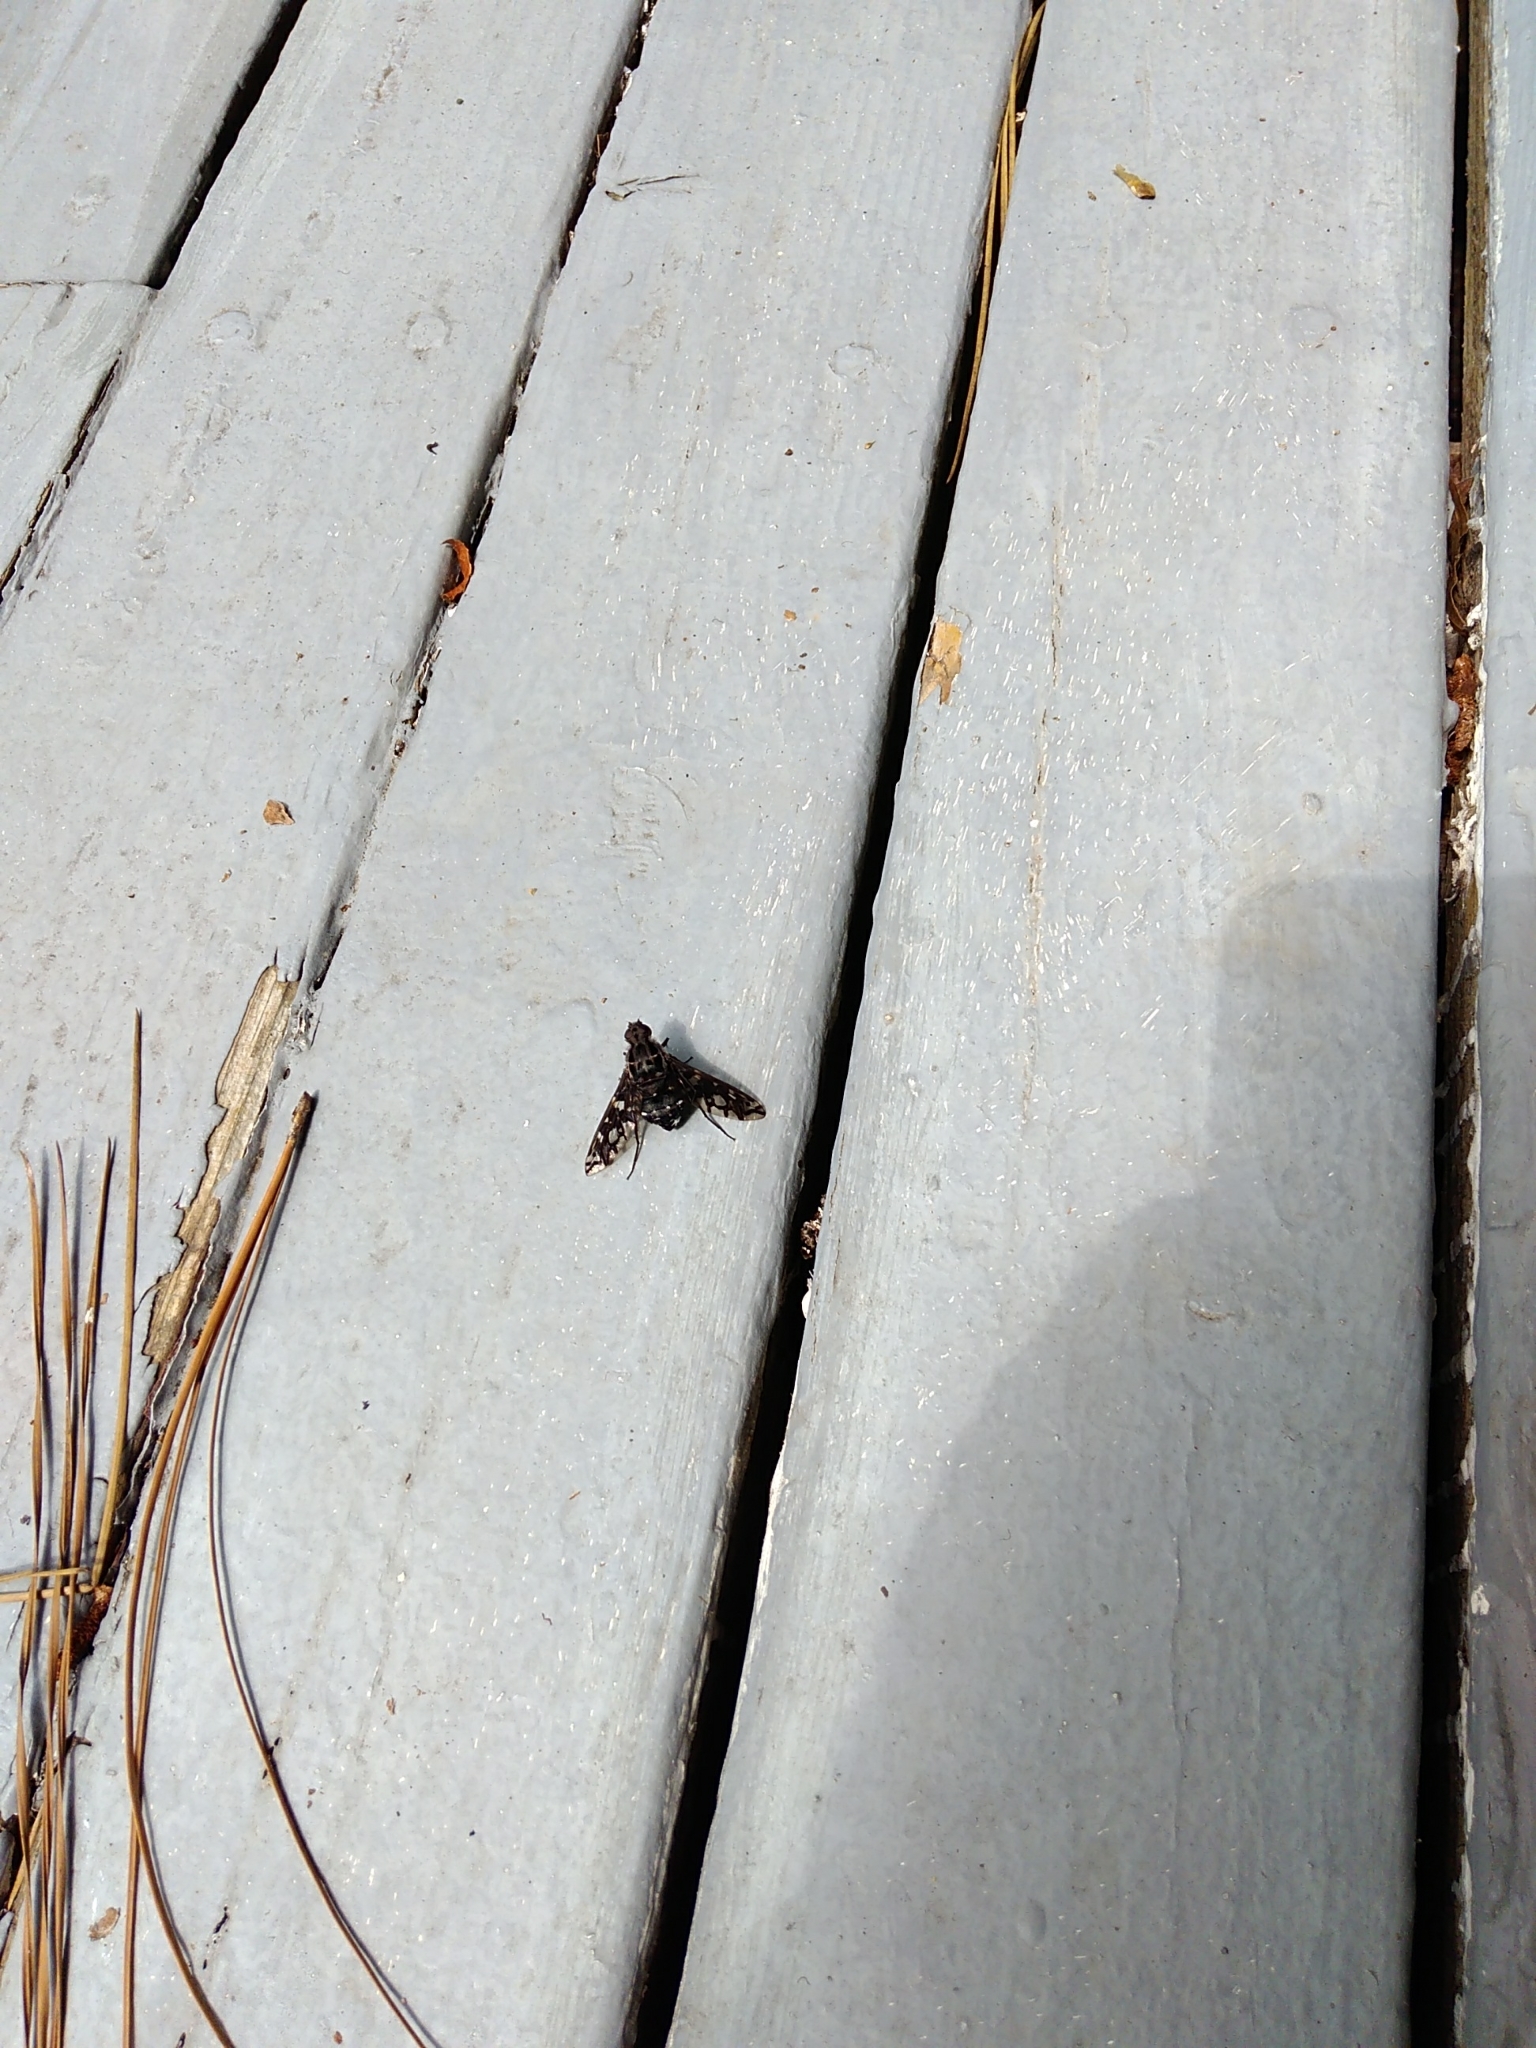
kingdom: Animalia
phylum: Arthropoda
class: Insecta
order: Diptera
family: Bombyliidae
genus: Xenox
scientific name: Xenox tigrinus
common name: Tiger bee fly
